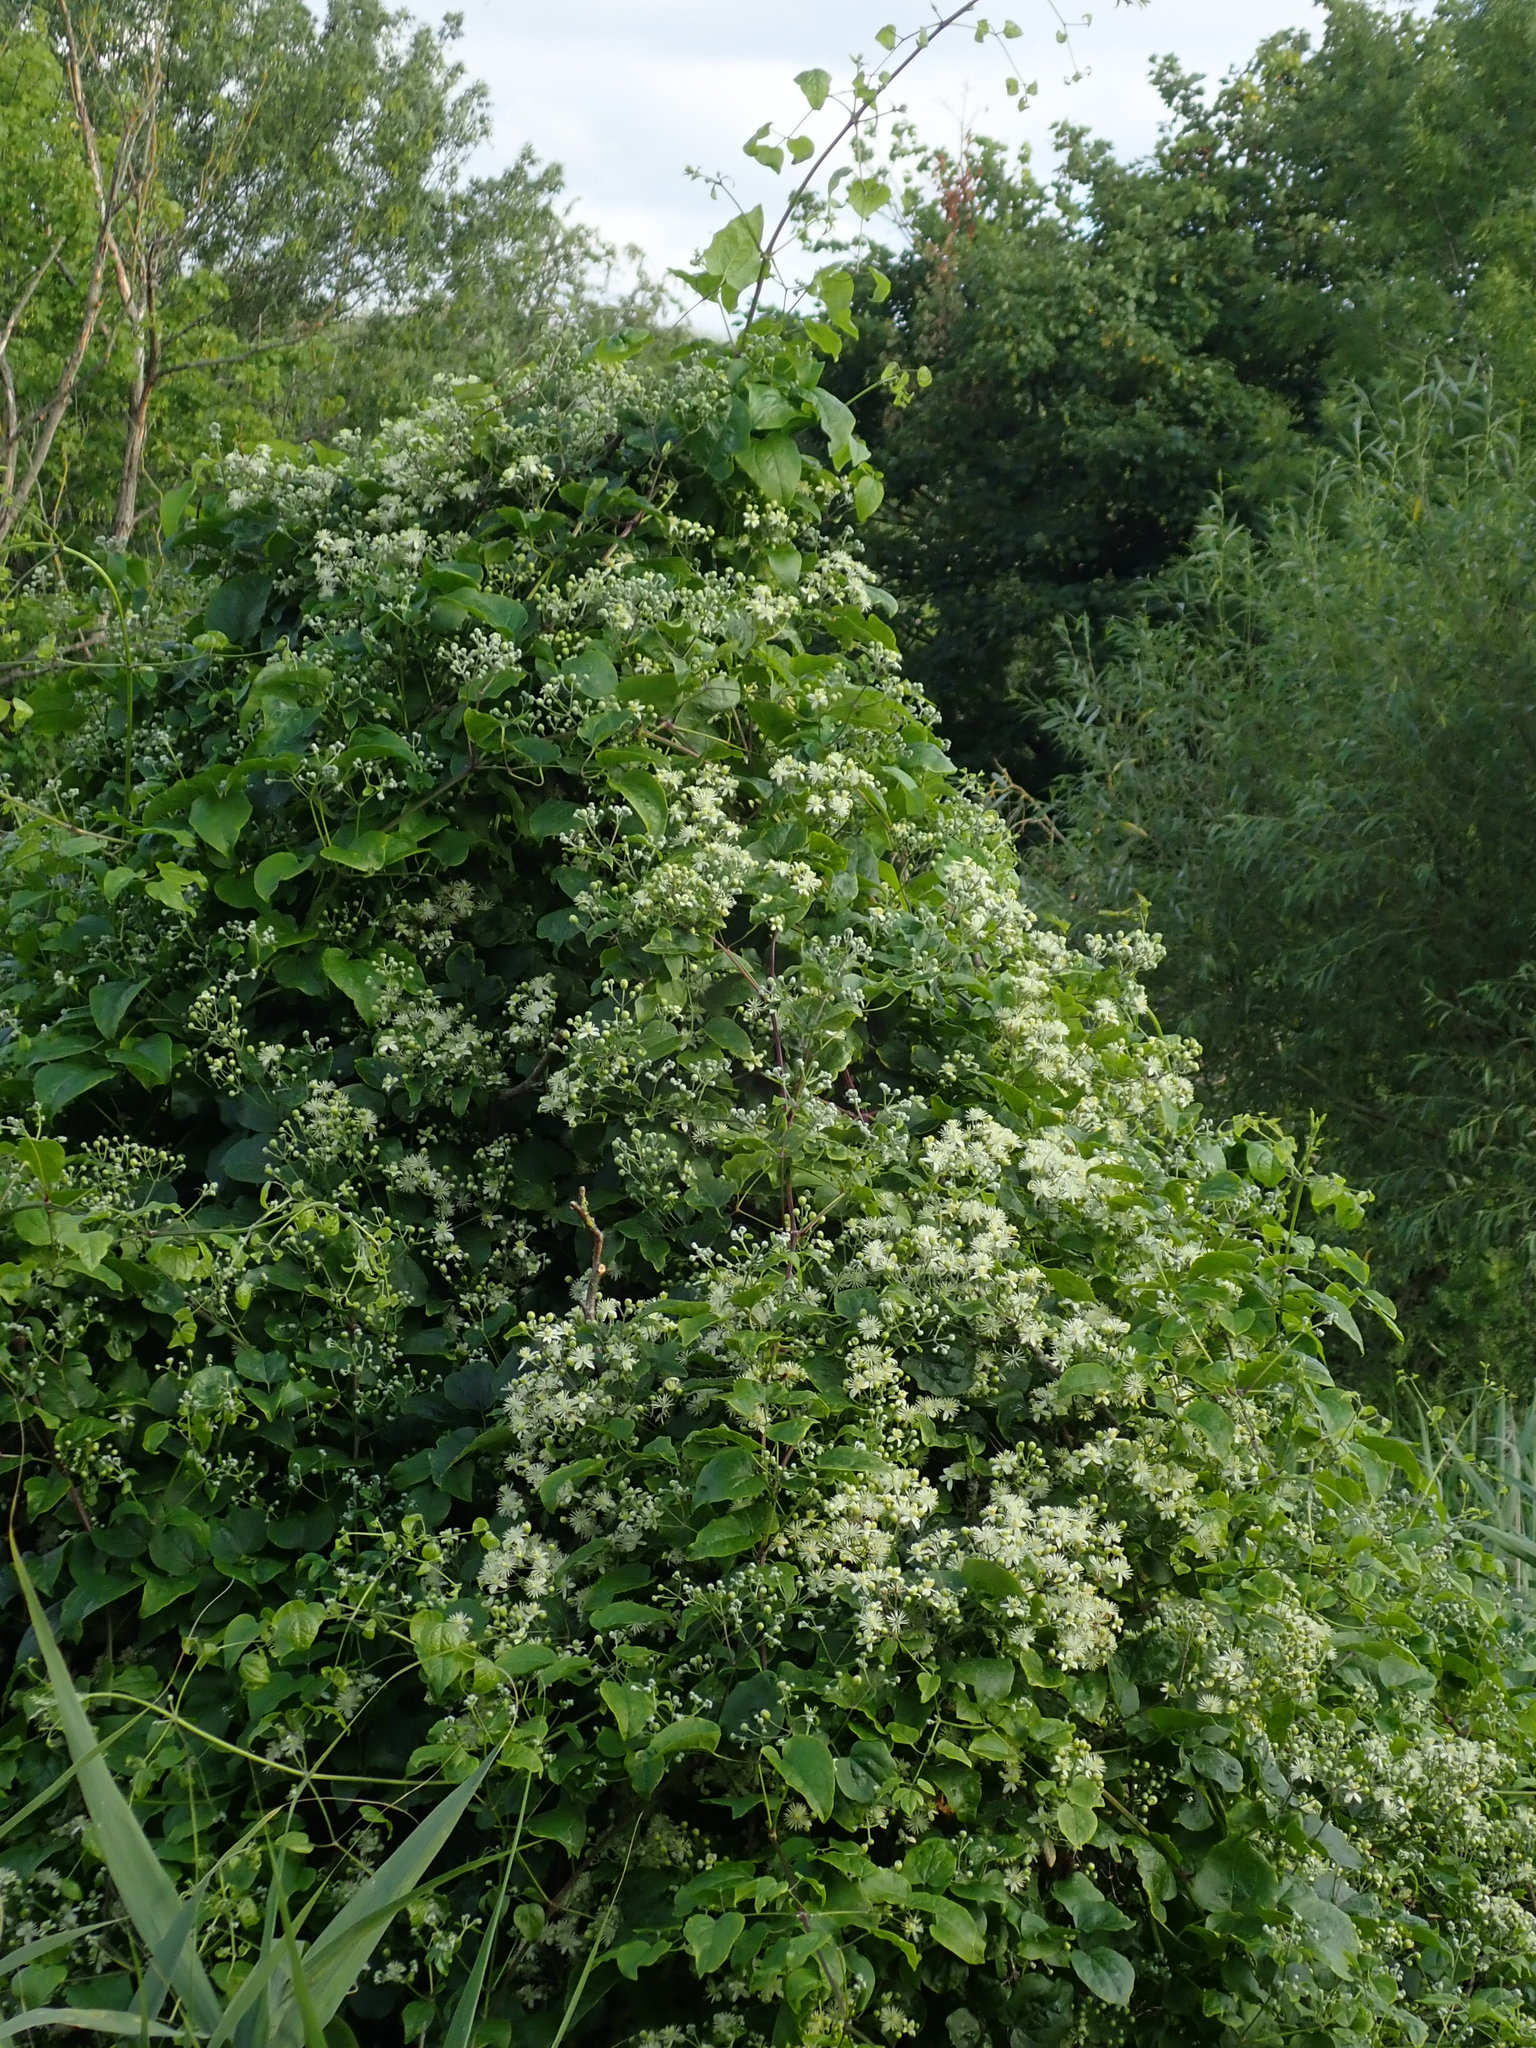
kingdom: Plantae
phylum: Tracheophyta
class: Magnoliopsida
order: Ranunculales
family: Ranunculaceae
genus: Clematis
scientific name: Clematis vitalba
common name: Evergreen clematis
